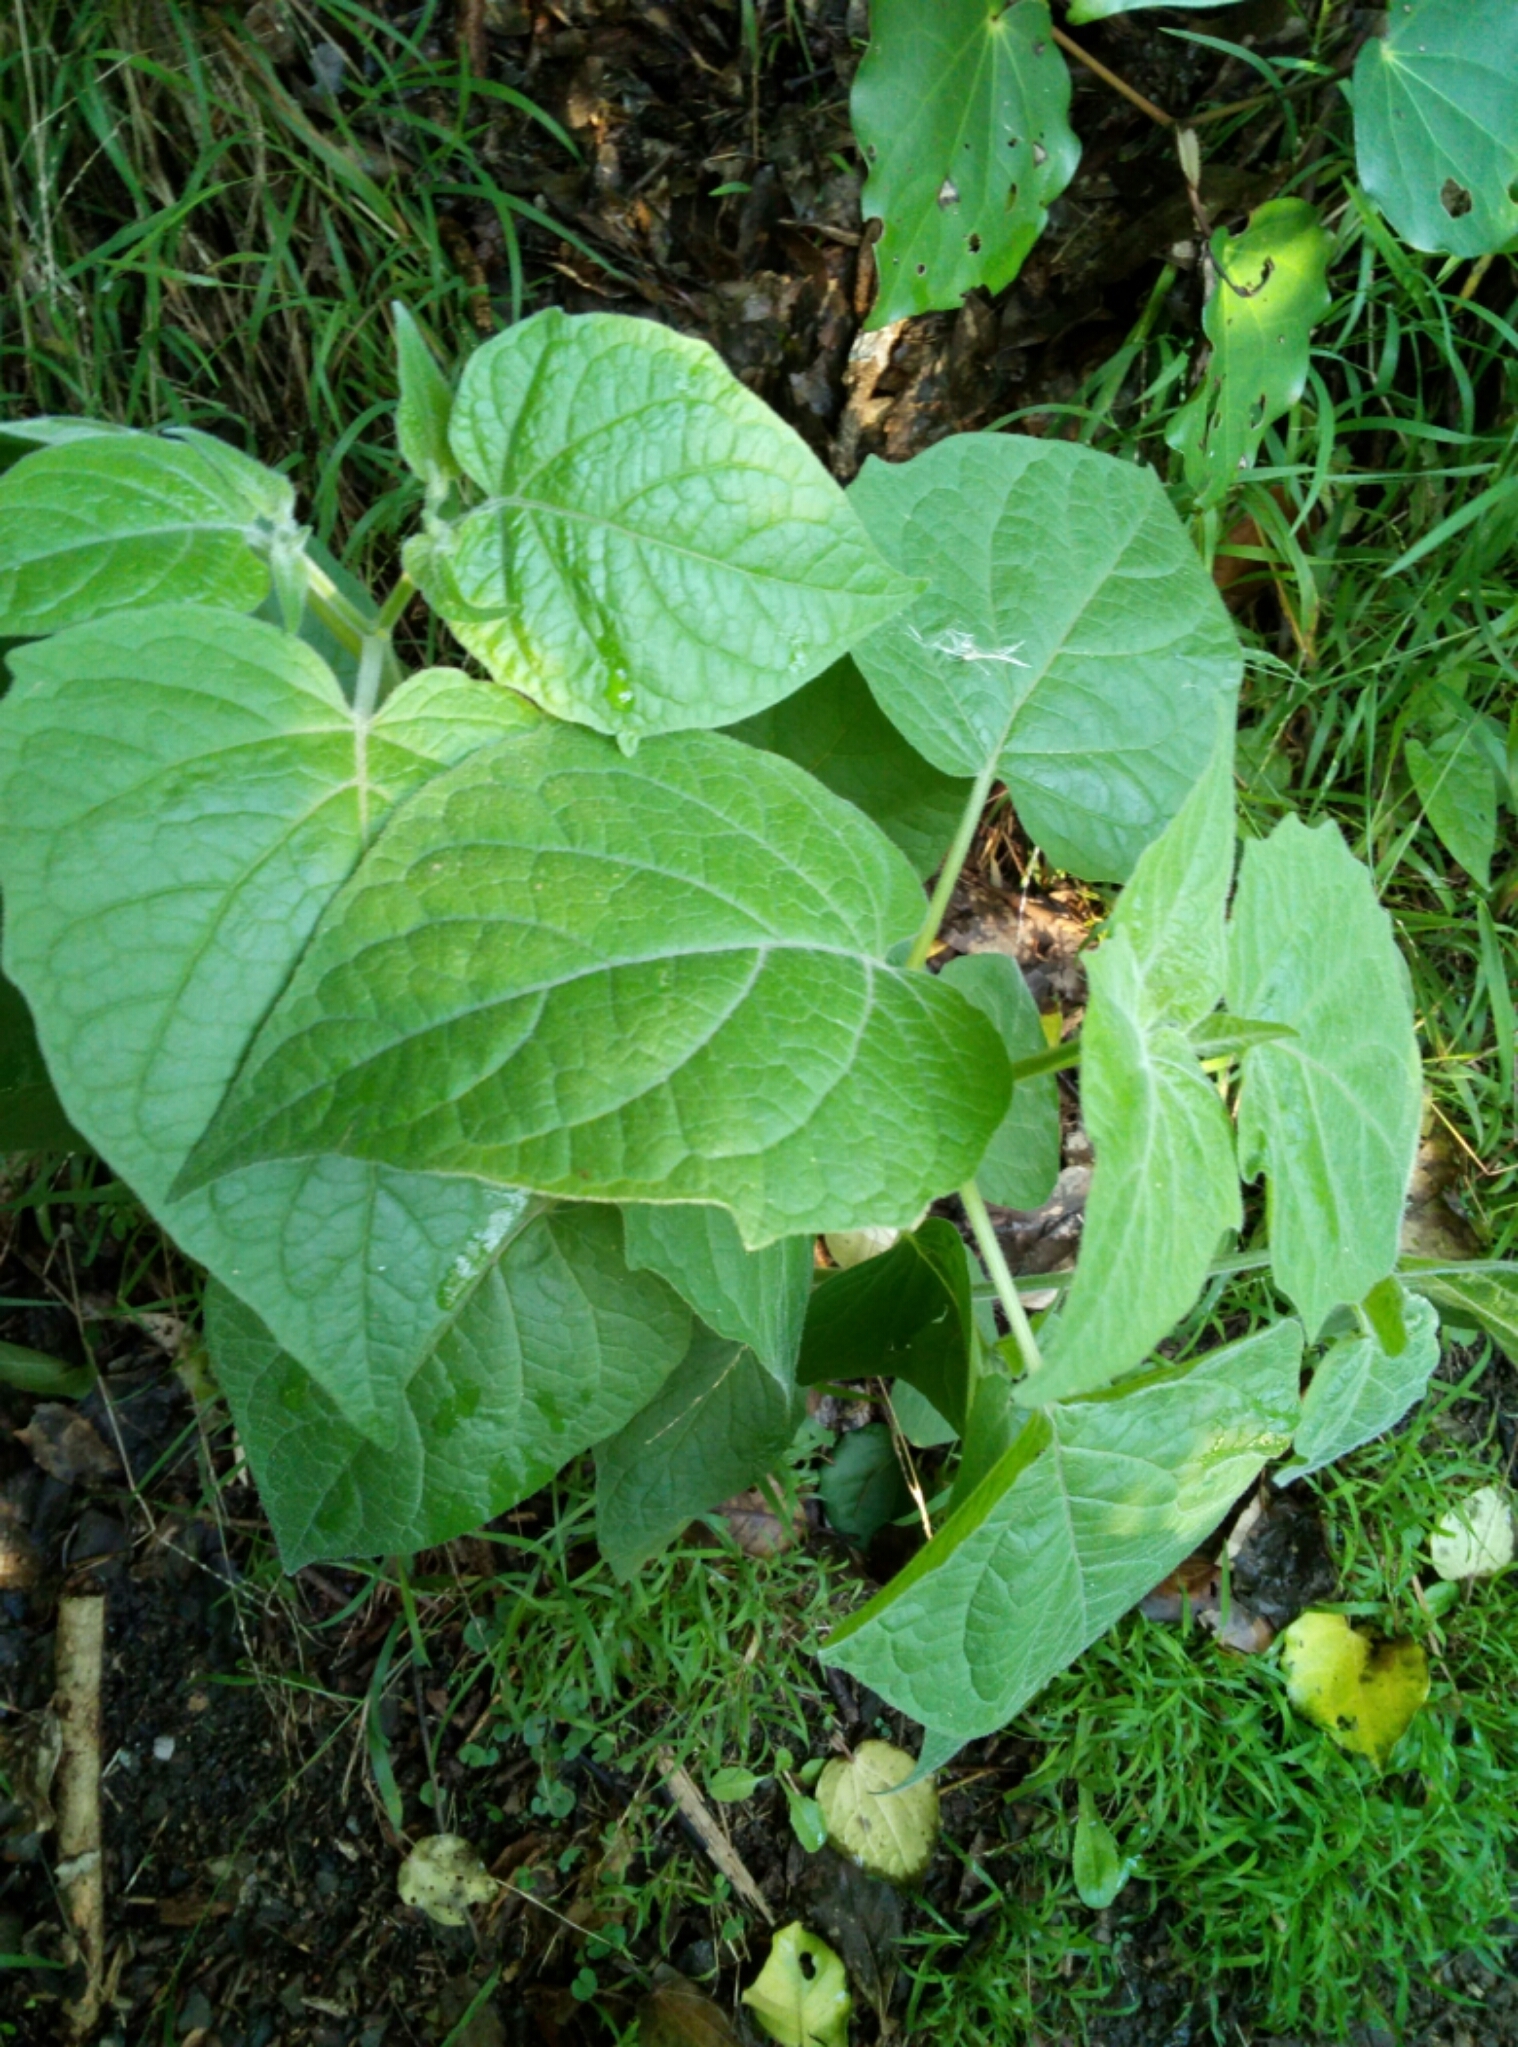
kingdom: Plantae
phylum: Tracheophyta
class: Magnoliopsida
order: Solanales
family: Solanaceae
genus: Physalis
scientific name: Physalis peruviana
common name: Cape-gooseberry
